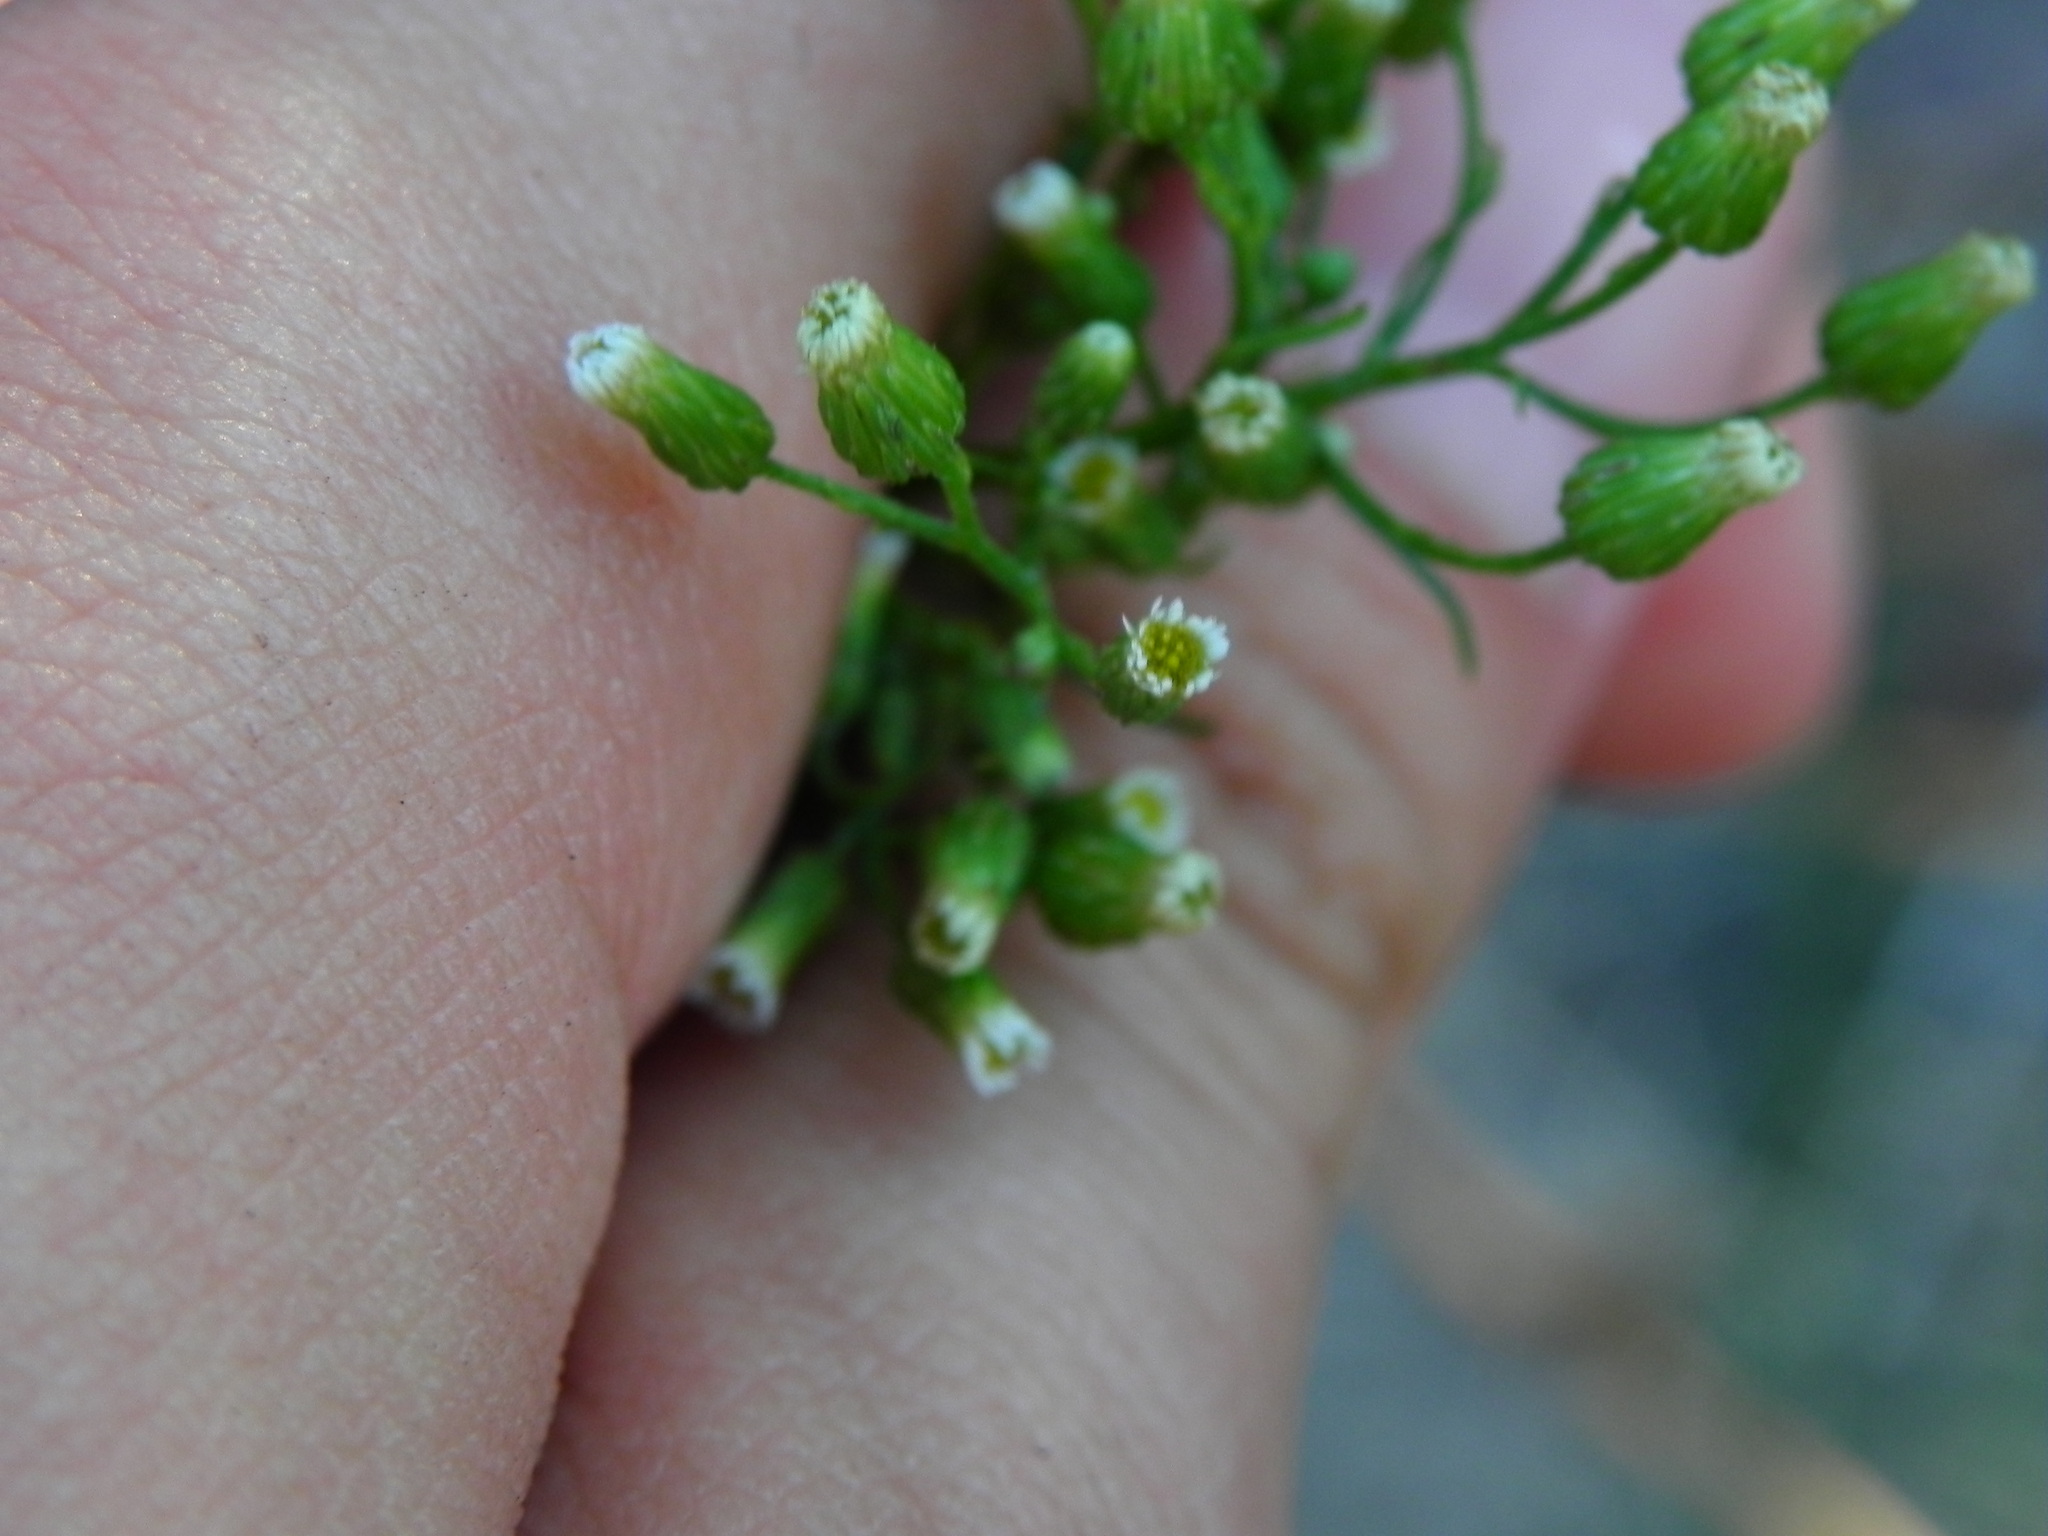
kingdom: Plantae
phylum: Tracheophyta
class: Magnoliopsida
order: Asterales
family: Asteraceae
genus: Erigeron
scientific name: Erigeron canadensis
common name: Canadian fleabane
